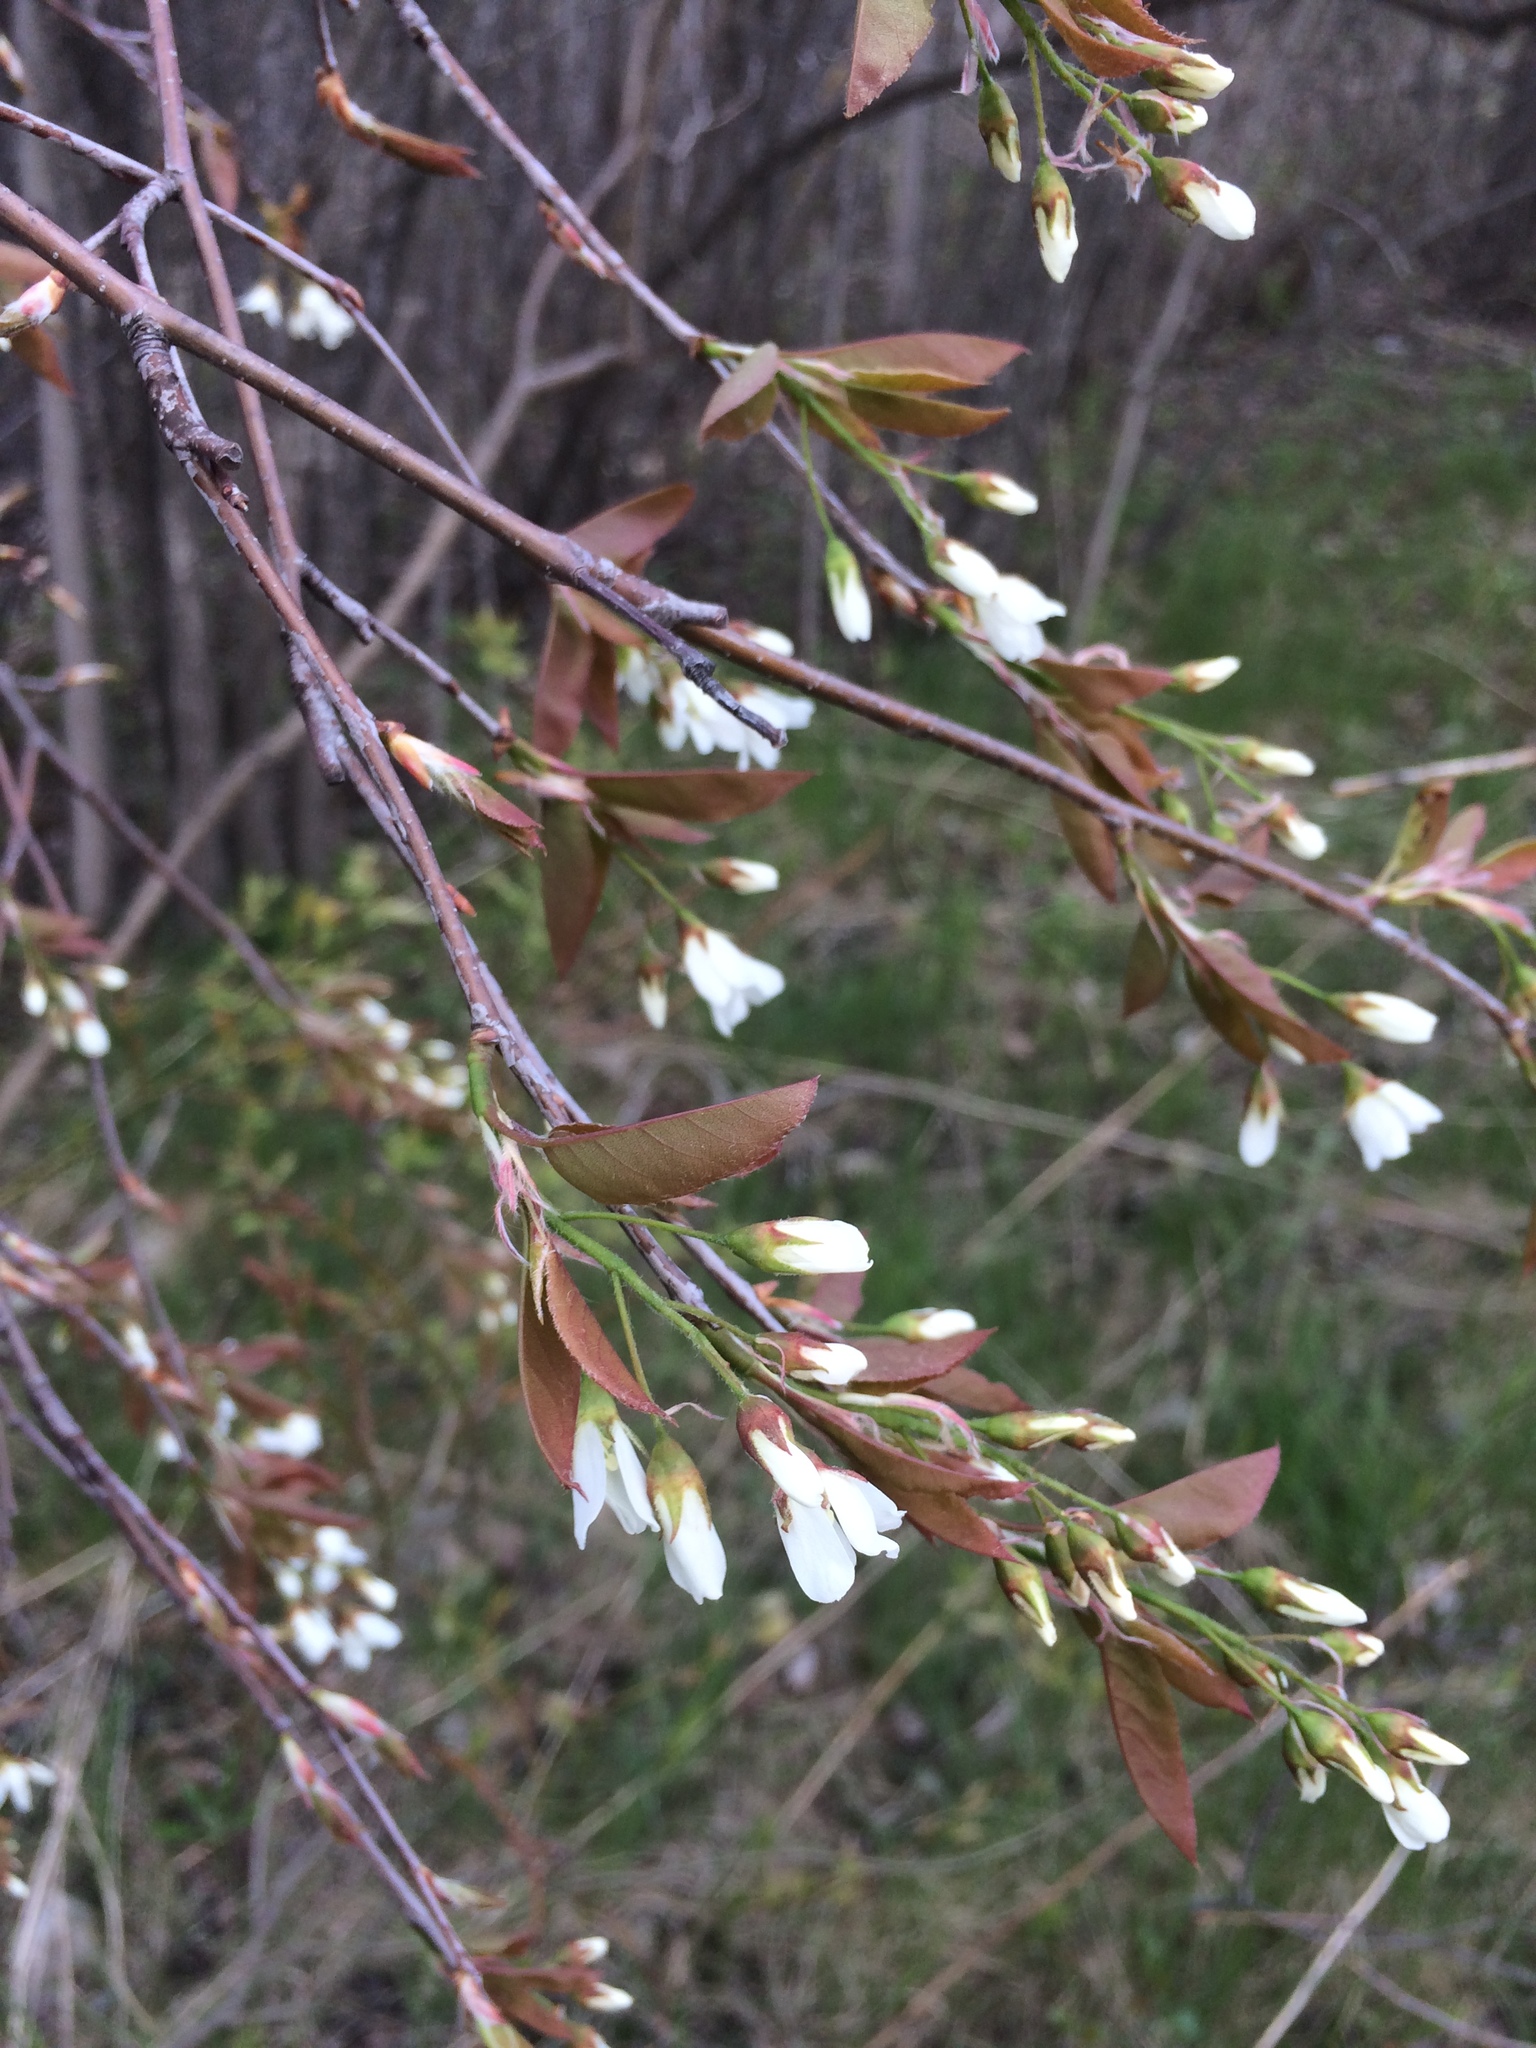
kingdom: Plantae
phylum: Tracheophyta
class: Magnoliopsida
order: Rosales
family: Rosaceae
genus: Amelanchier
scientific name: Amelanchier laevis
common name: Allegheny serviceberry
